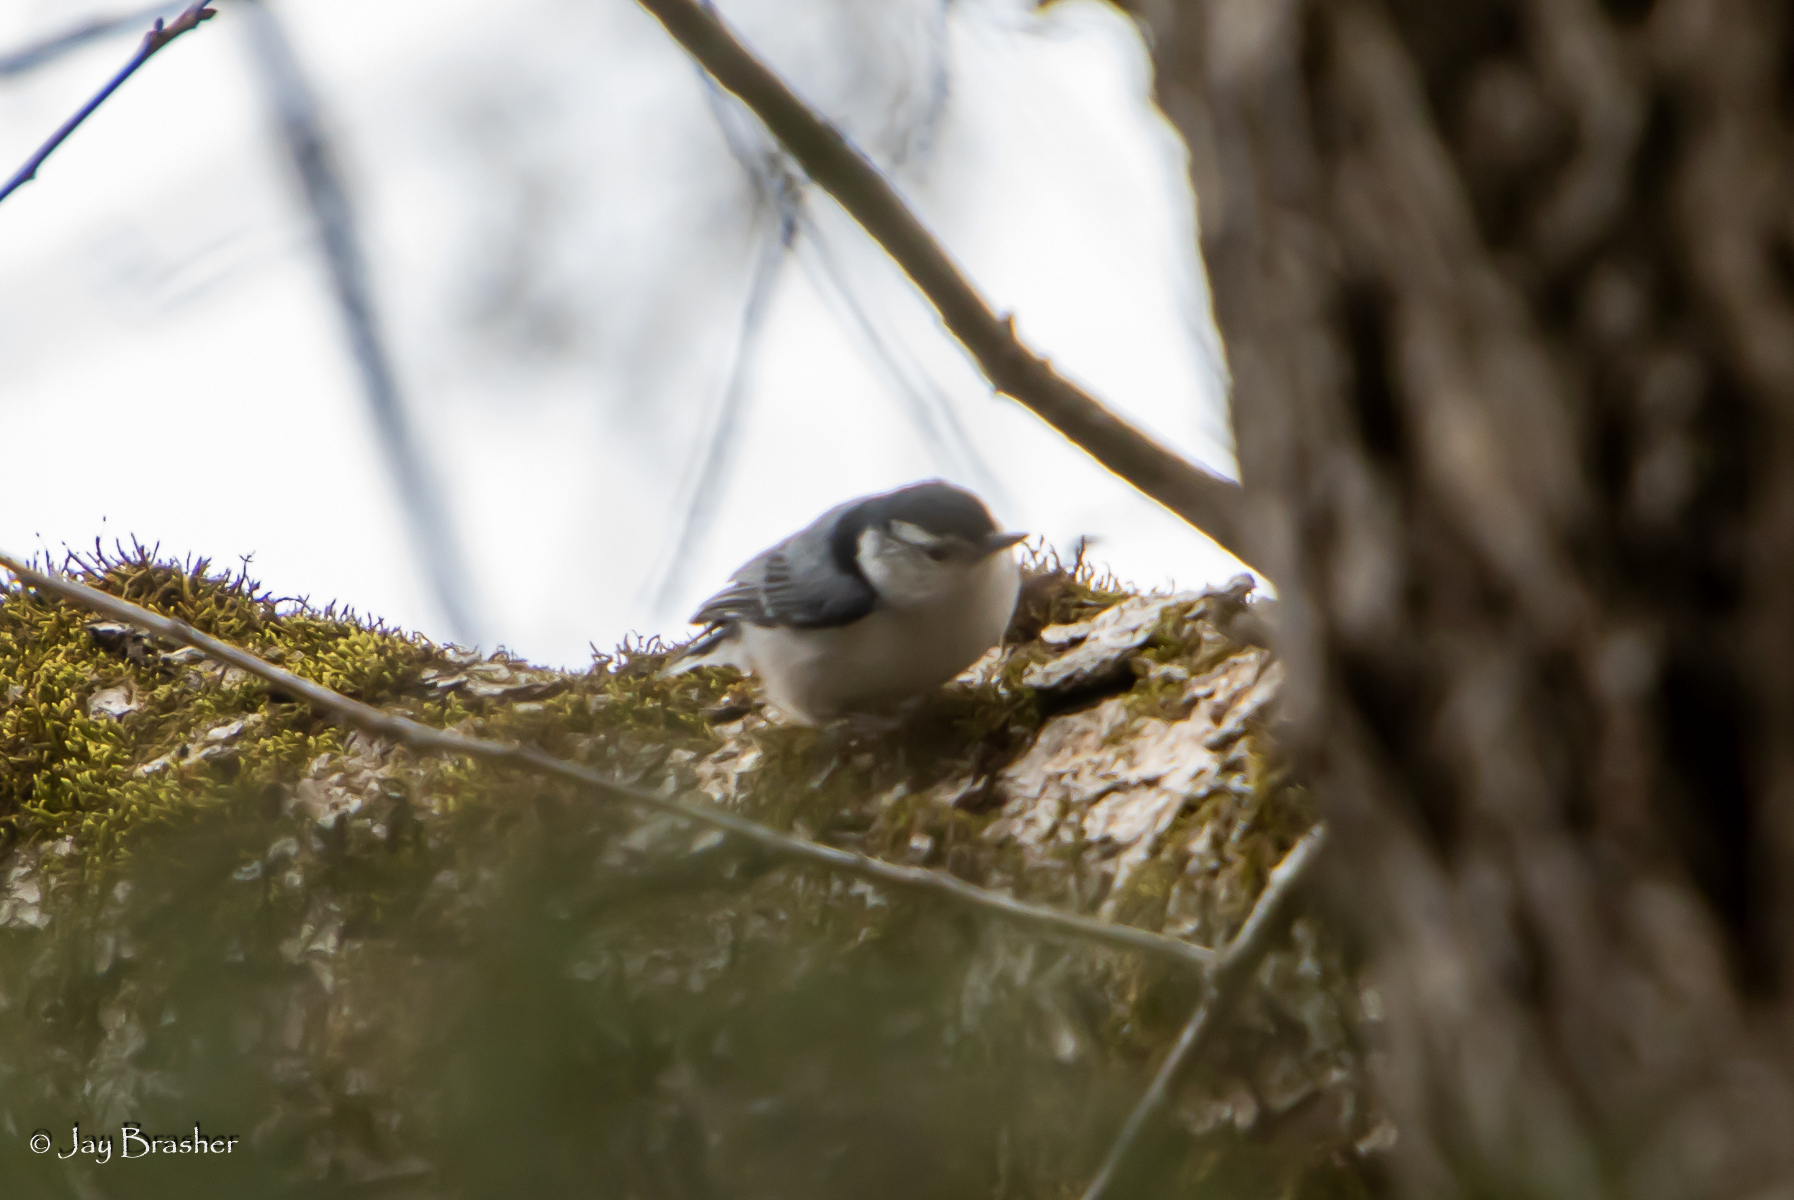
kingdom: Animalia
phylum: Chordata
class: Aves
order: Passeriformes
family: Sittidae
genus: Sitta
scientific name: Sitta carolinensis
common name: White-breasted nuthatch
